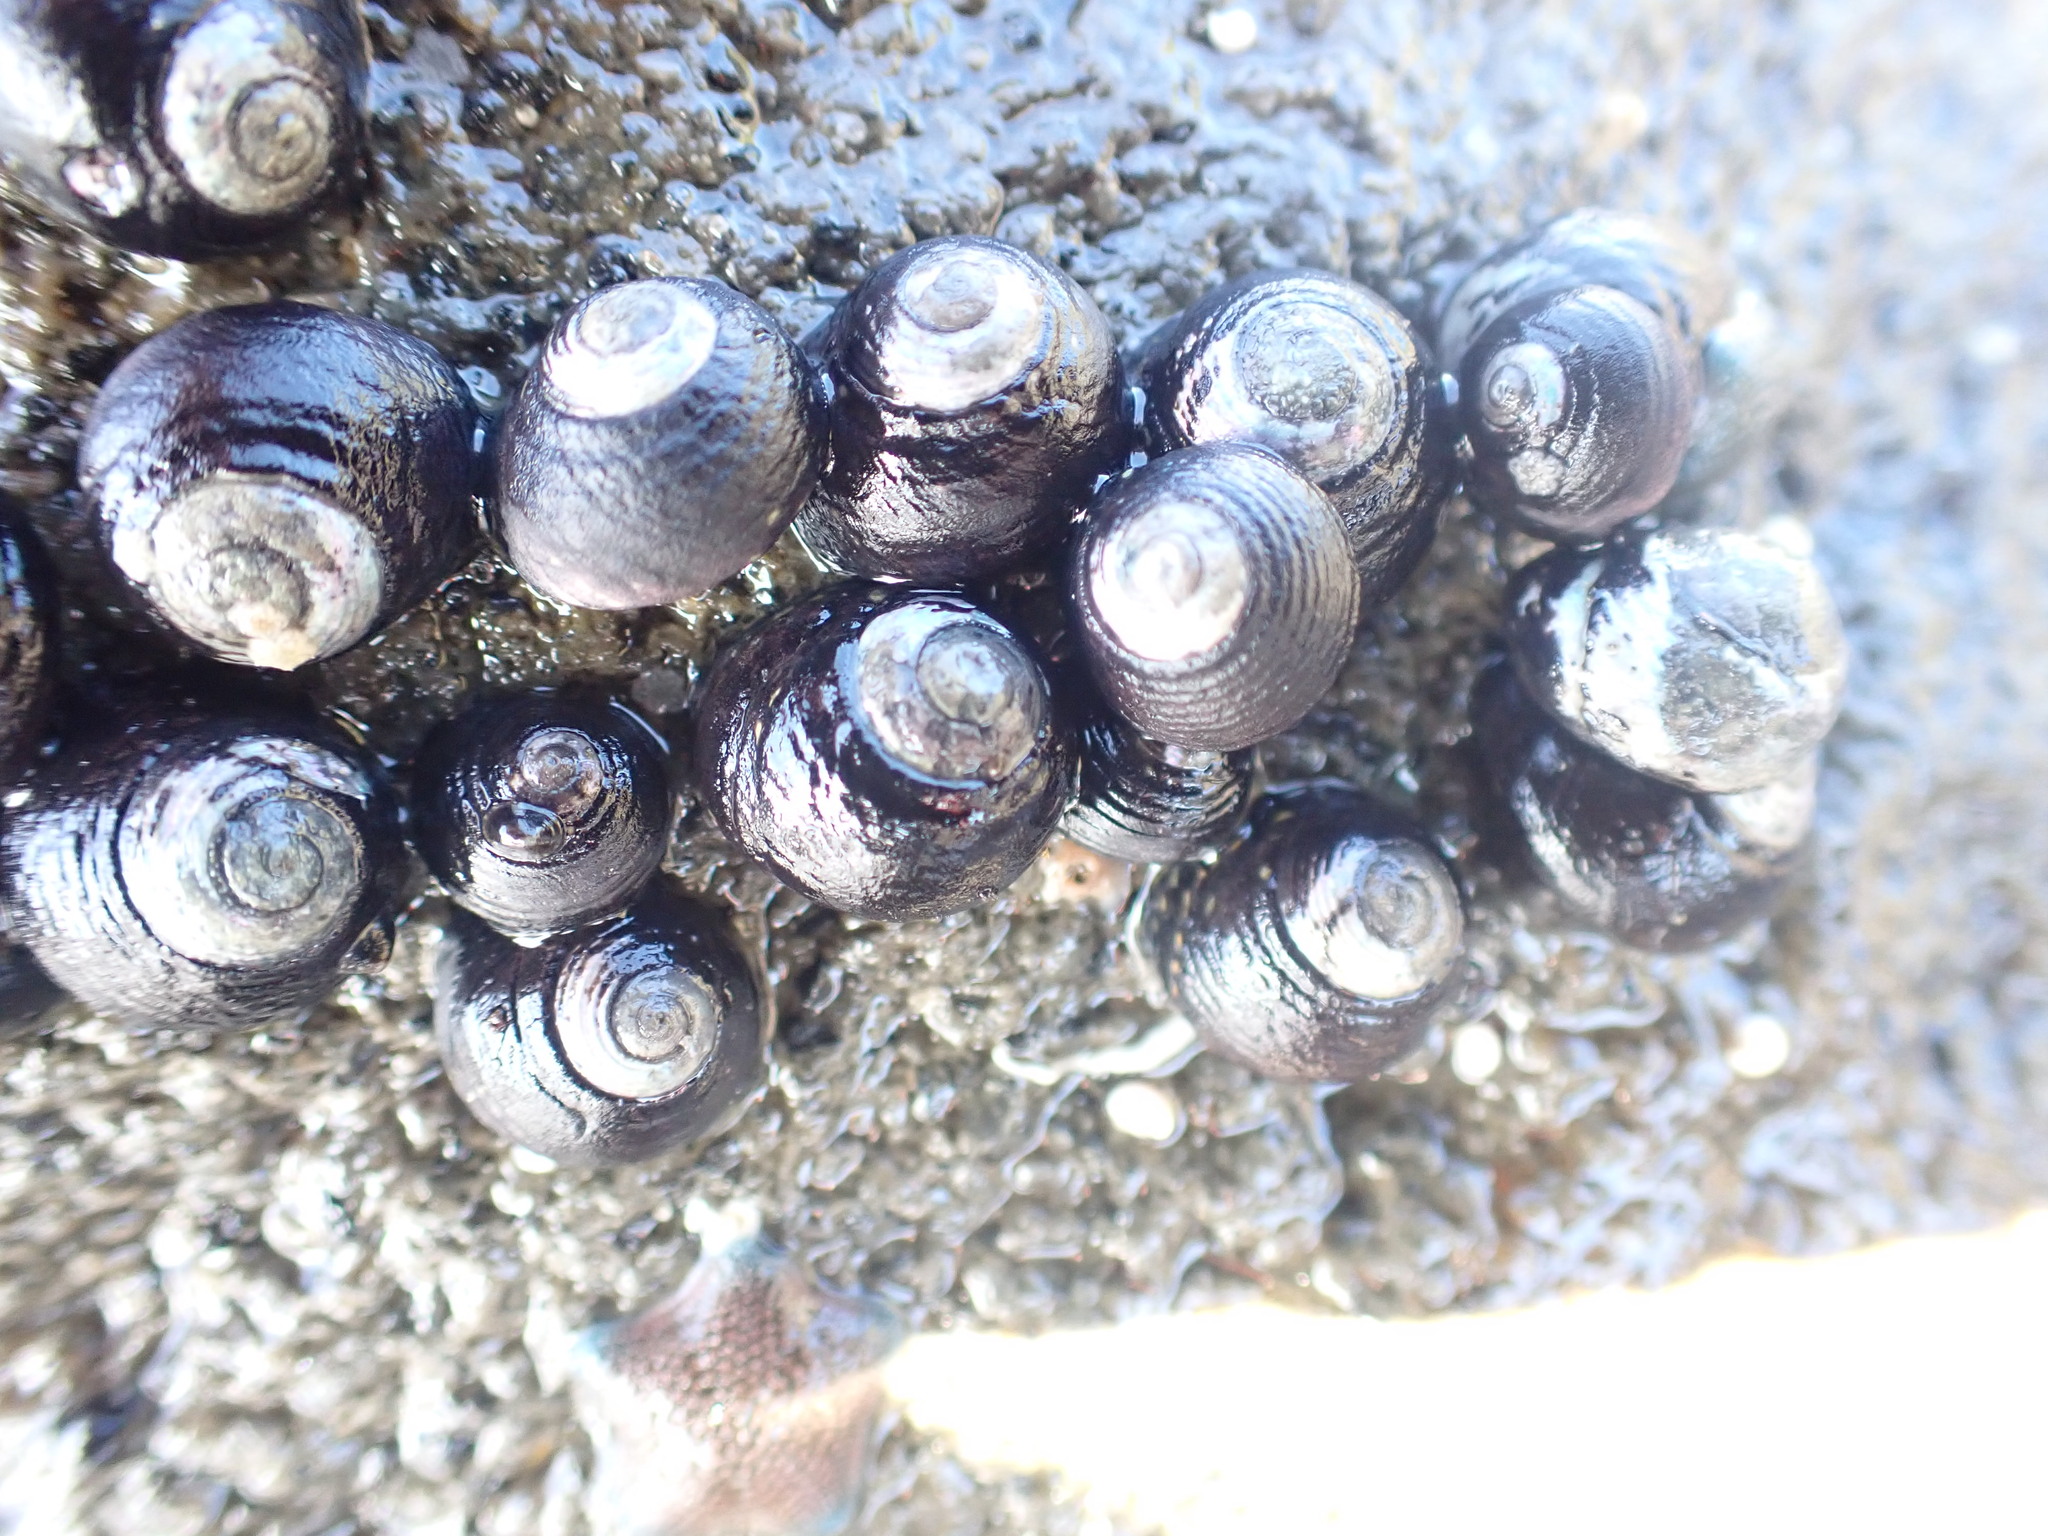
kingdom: Animalia
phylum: Mollusca
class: Gastropoda
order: Trochida
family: Trochidae
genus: Diloma
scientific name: Diloma aridum
